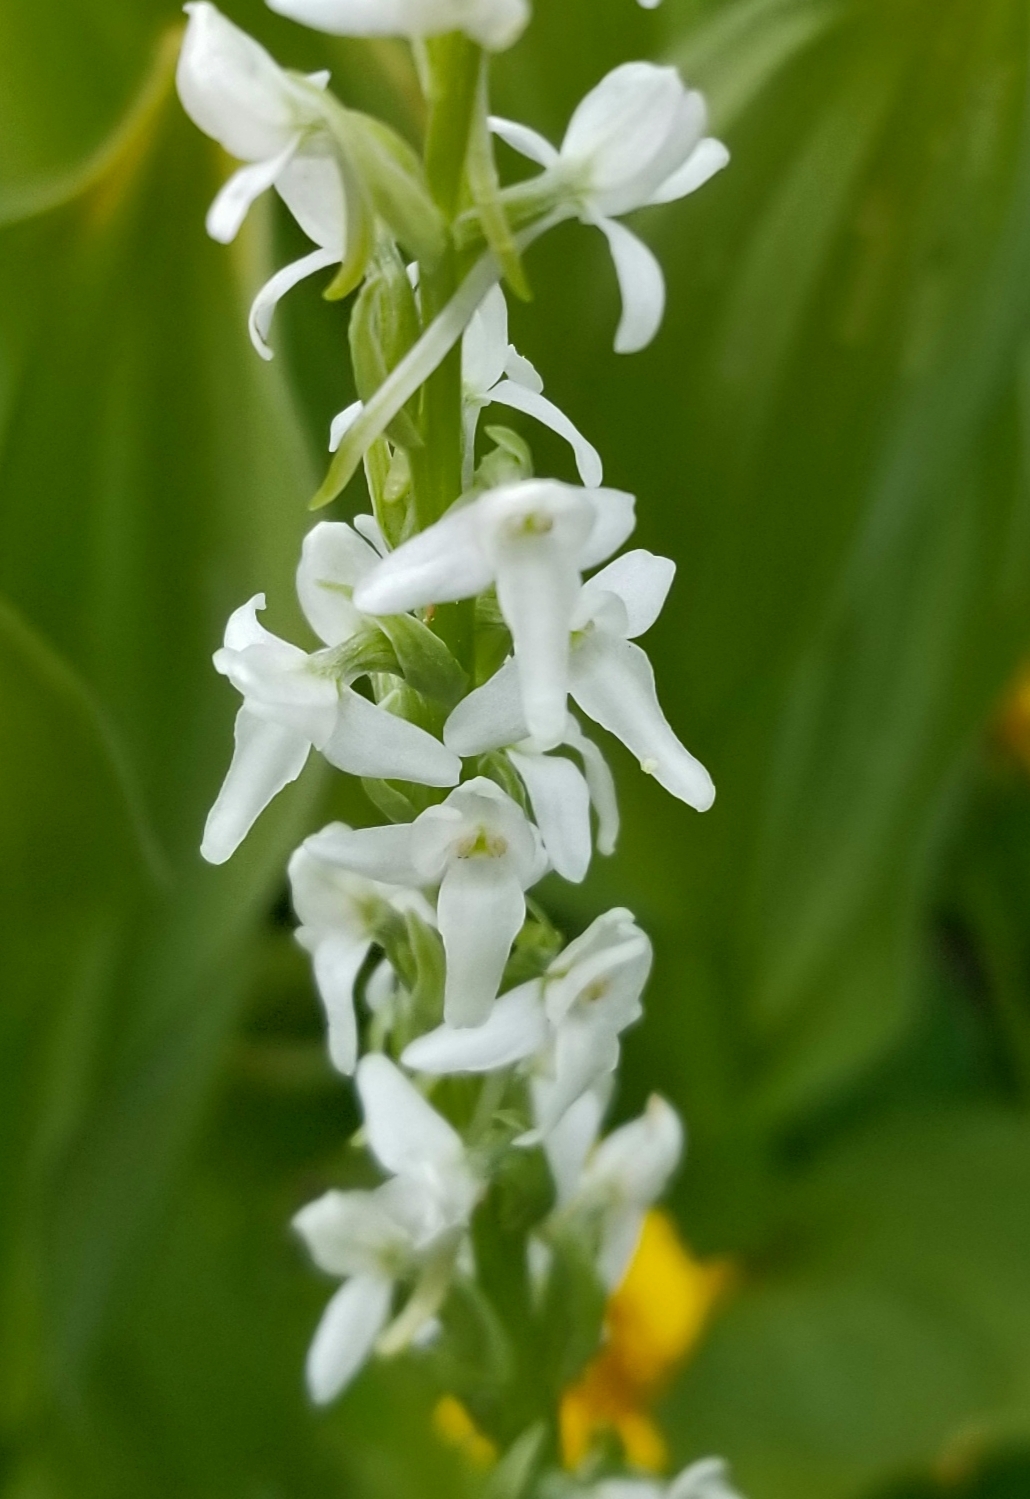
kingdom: Plantae
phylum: Tracheophyta
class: Liliopsida
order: Asparagales
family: Orchidaceae
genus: Platanthera
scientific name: Platanthera dilatata
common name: Bog candles
